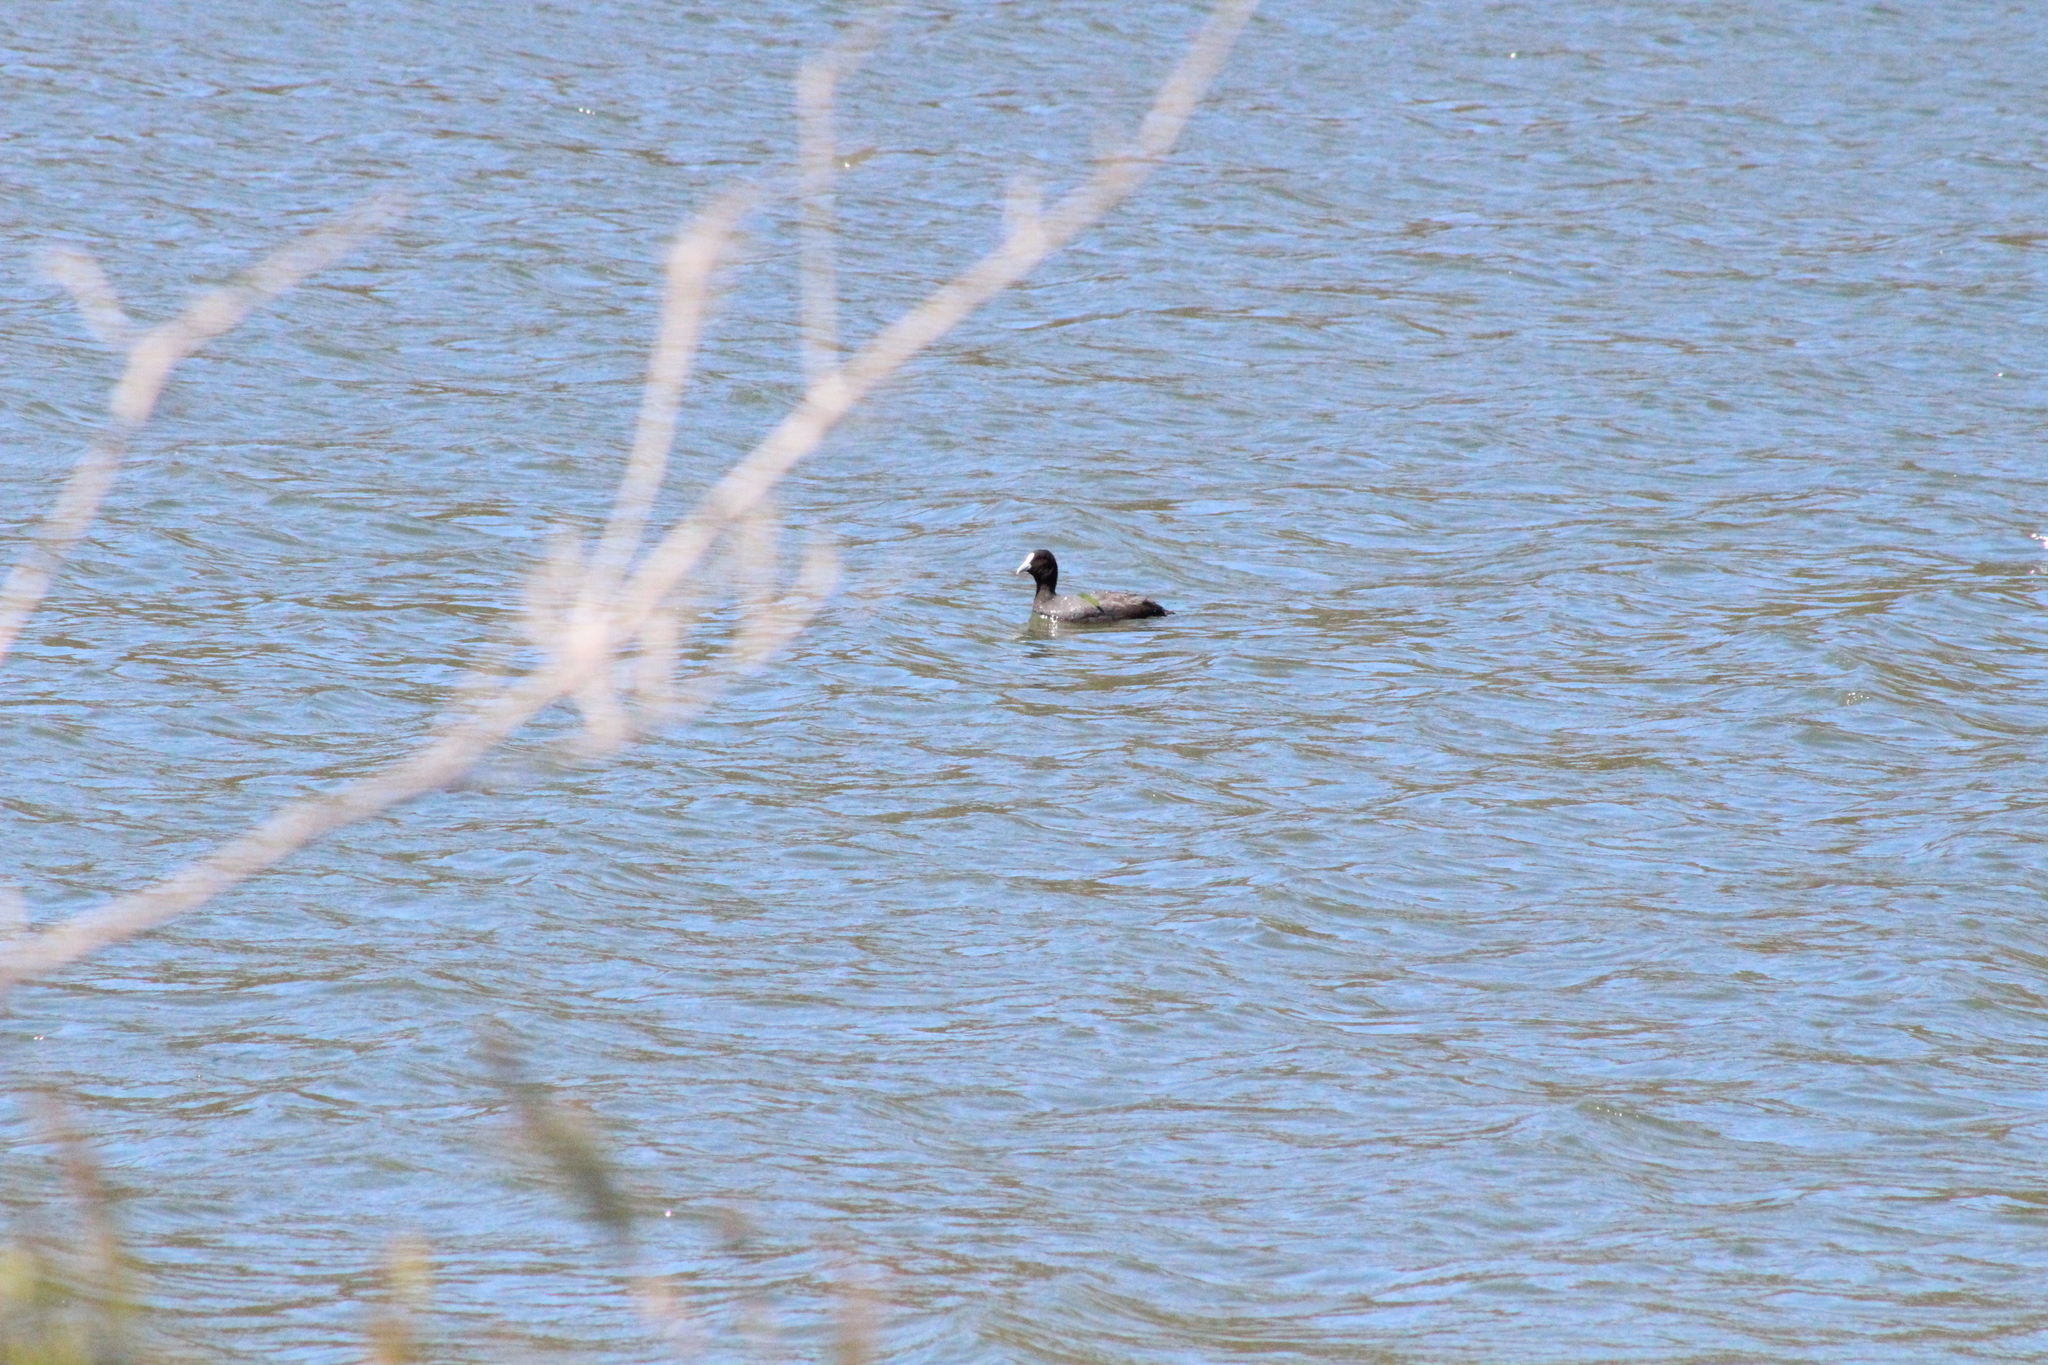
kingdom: Animalia
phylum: Chordata
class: Aves
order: Gruiformes
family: Rallidae
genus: Fulica
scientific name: Fulica atra
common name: Eurasian coot
